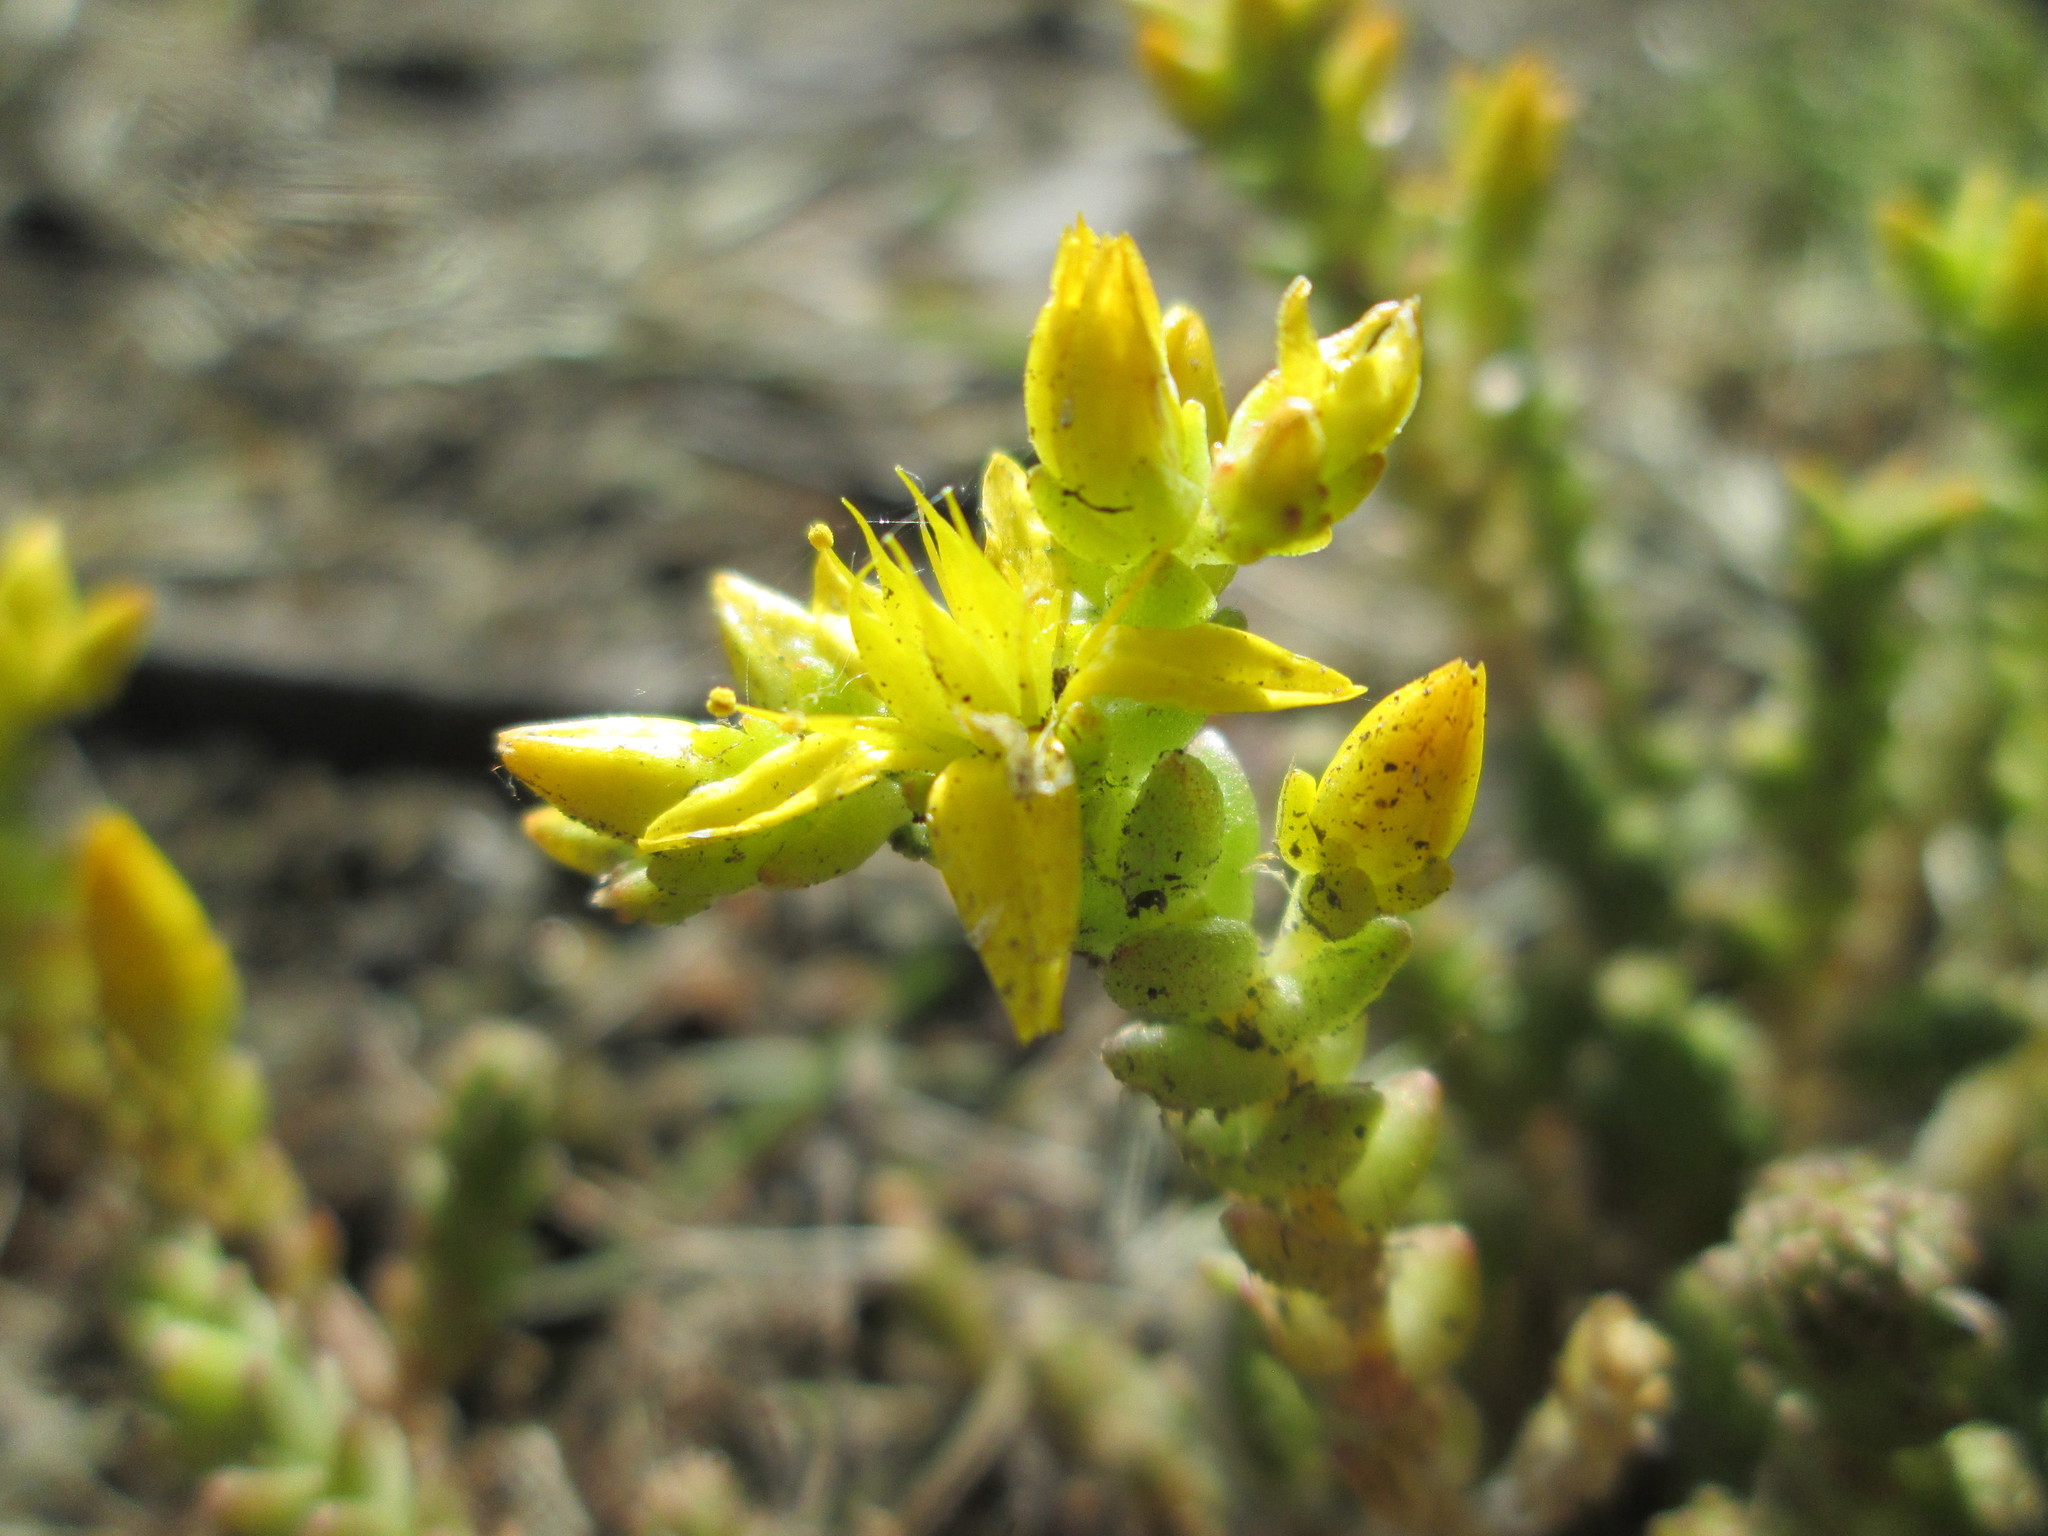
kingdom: Plantae
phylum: Tracheophyta
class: Magnoliopsida
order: Saxifragales
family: Crassulaceae
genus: Sedum
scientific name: Sedum acre
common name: Biting stonecrop
